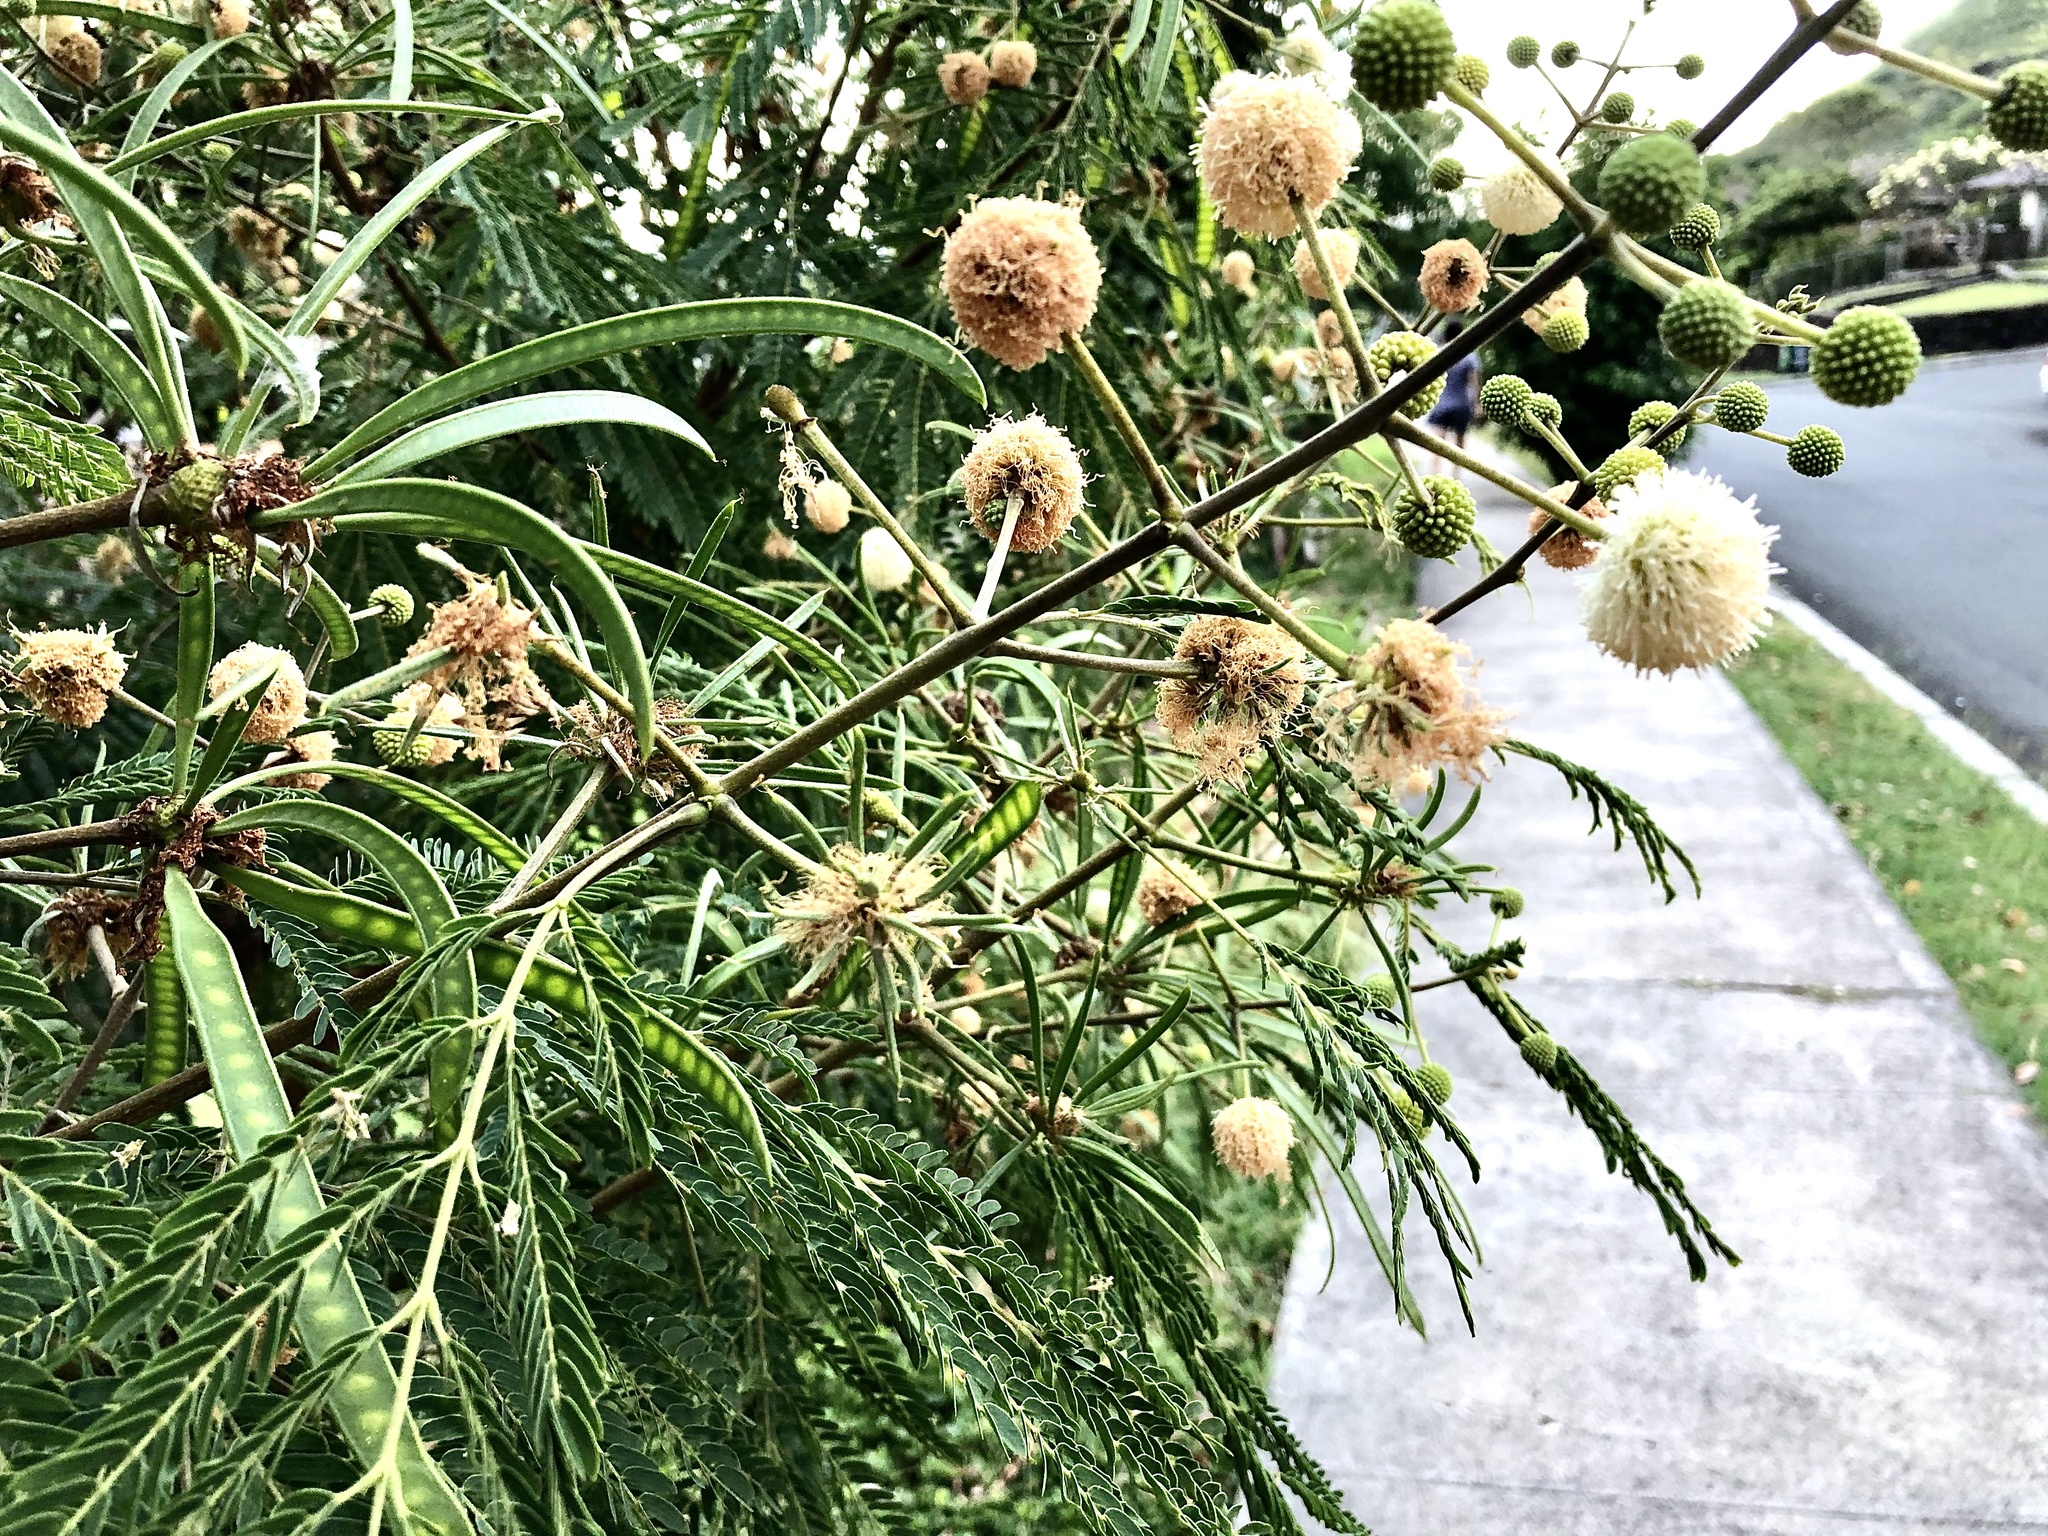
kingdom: Plantae
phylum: Tracheophyta
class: Magnoliopsida
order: Fabales
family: Fabaceae
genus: Leucaena
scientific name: Leucaena leucocephala
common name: White leadtree
